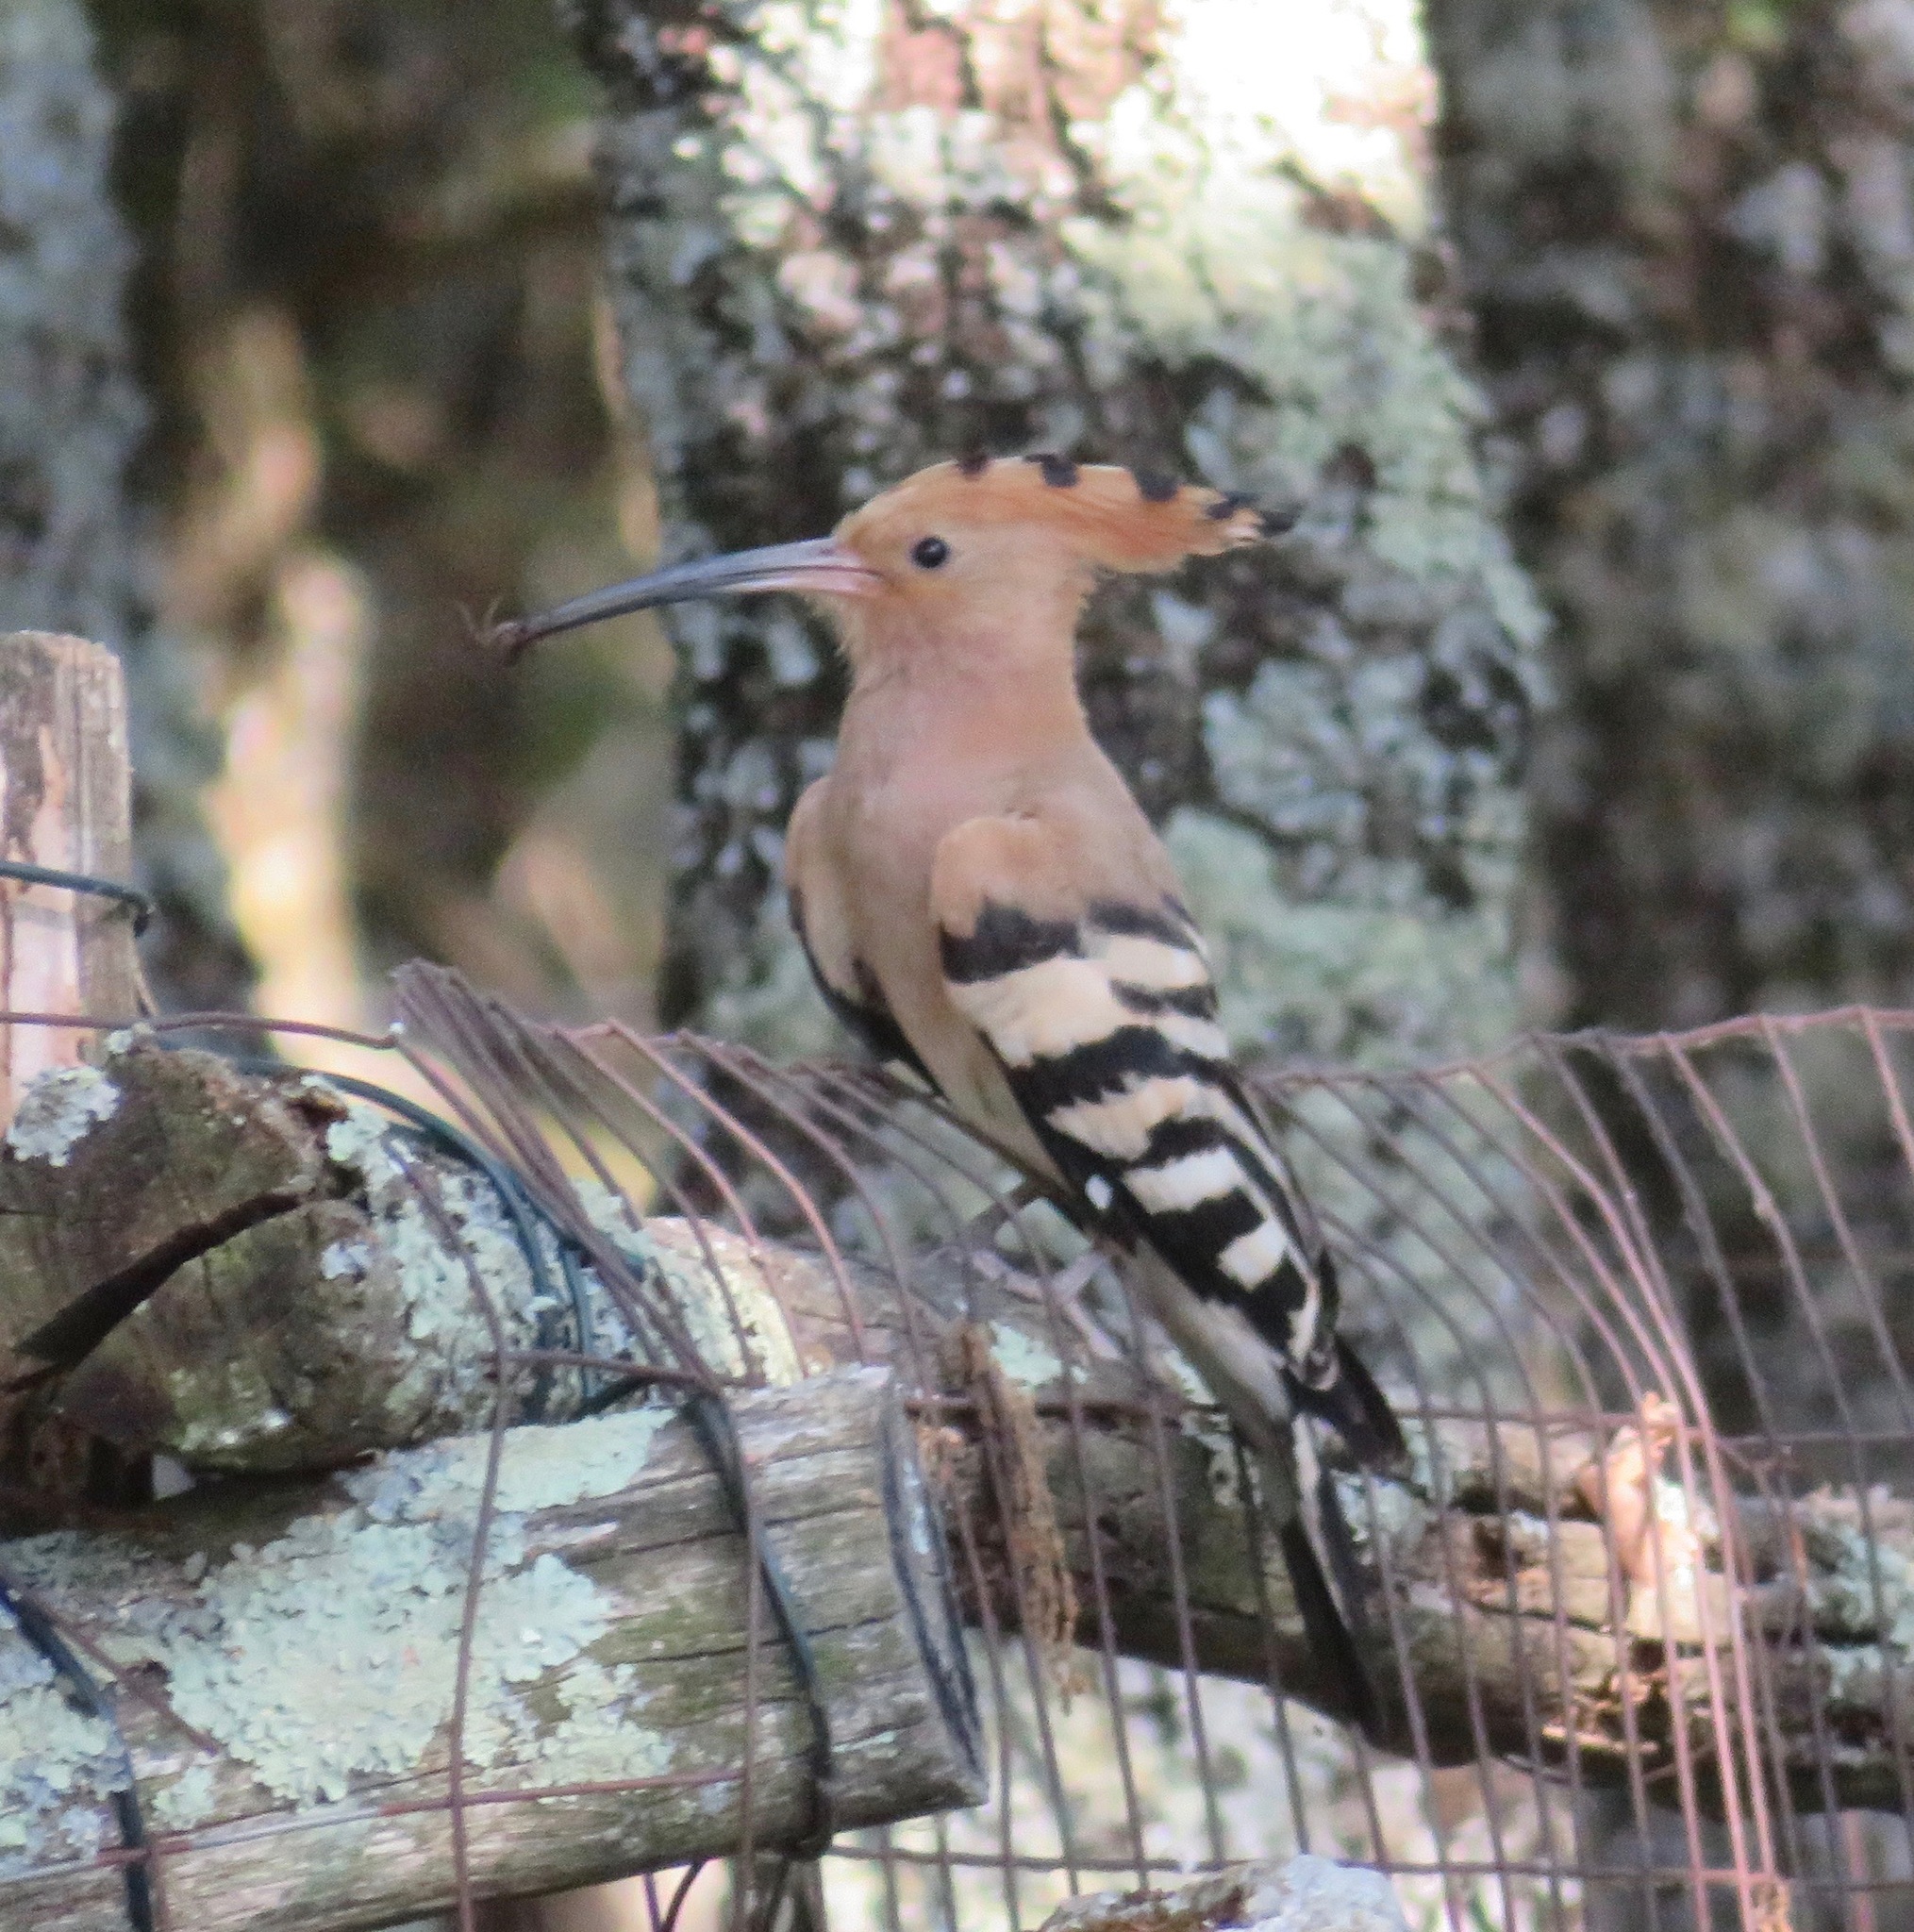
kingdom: Animalia
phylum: Chordata
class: Aves
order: Bucerotiformes
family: Upupidae
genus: Upupa
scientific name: Upupa epops
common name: Eurasian hoopoe
